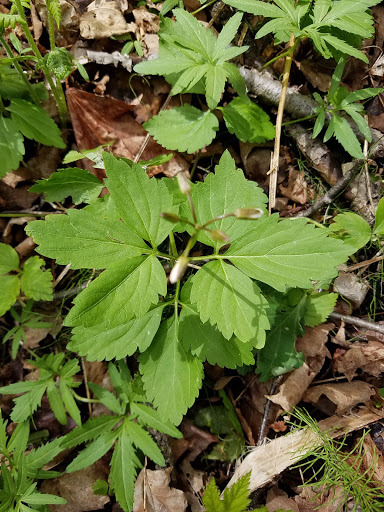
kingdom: Plantae
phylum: Tracheophyta
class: Magnoliopsida
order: Brassicales
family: Brassicaceae
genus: Cardamine
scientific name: Cardamine diphylla
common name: Broad-leaved toothwort
